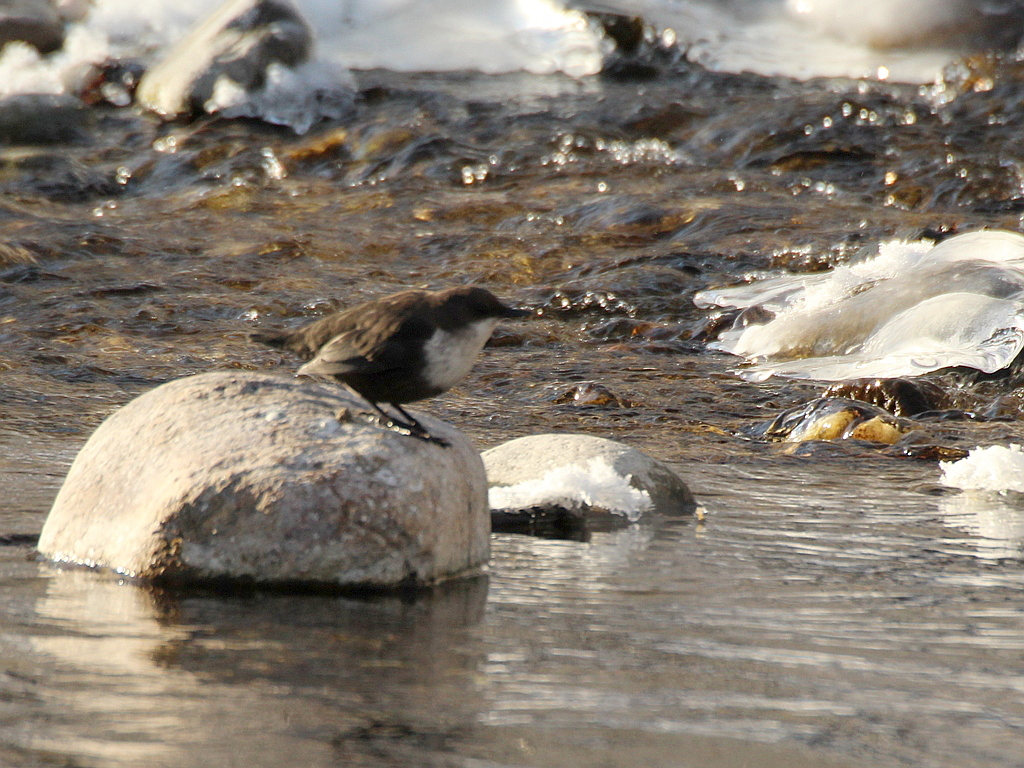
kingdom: Animalia
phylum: Chordata
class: Aves
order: Passeriformes
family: Cinclidae
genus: Cinclus
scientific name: Cinclus cinclus
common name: White-throated dipper
